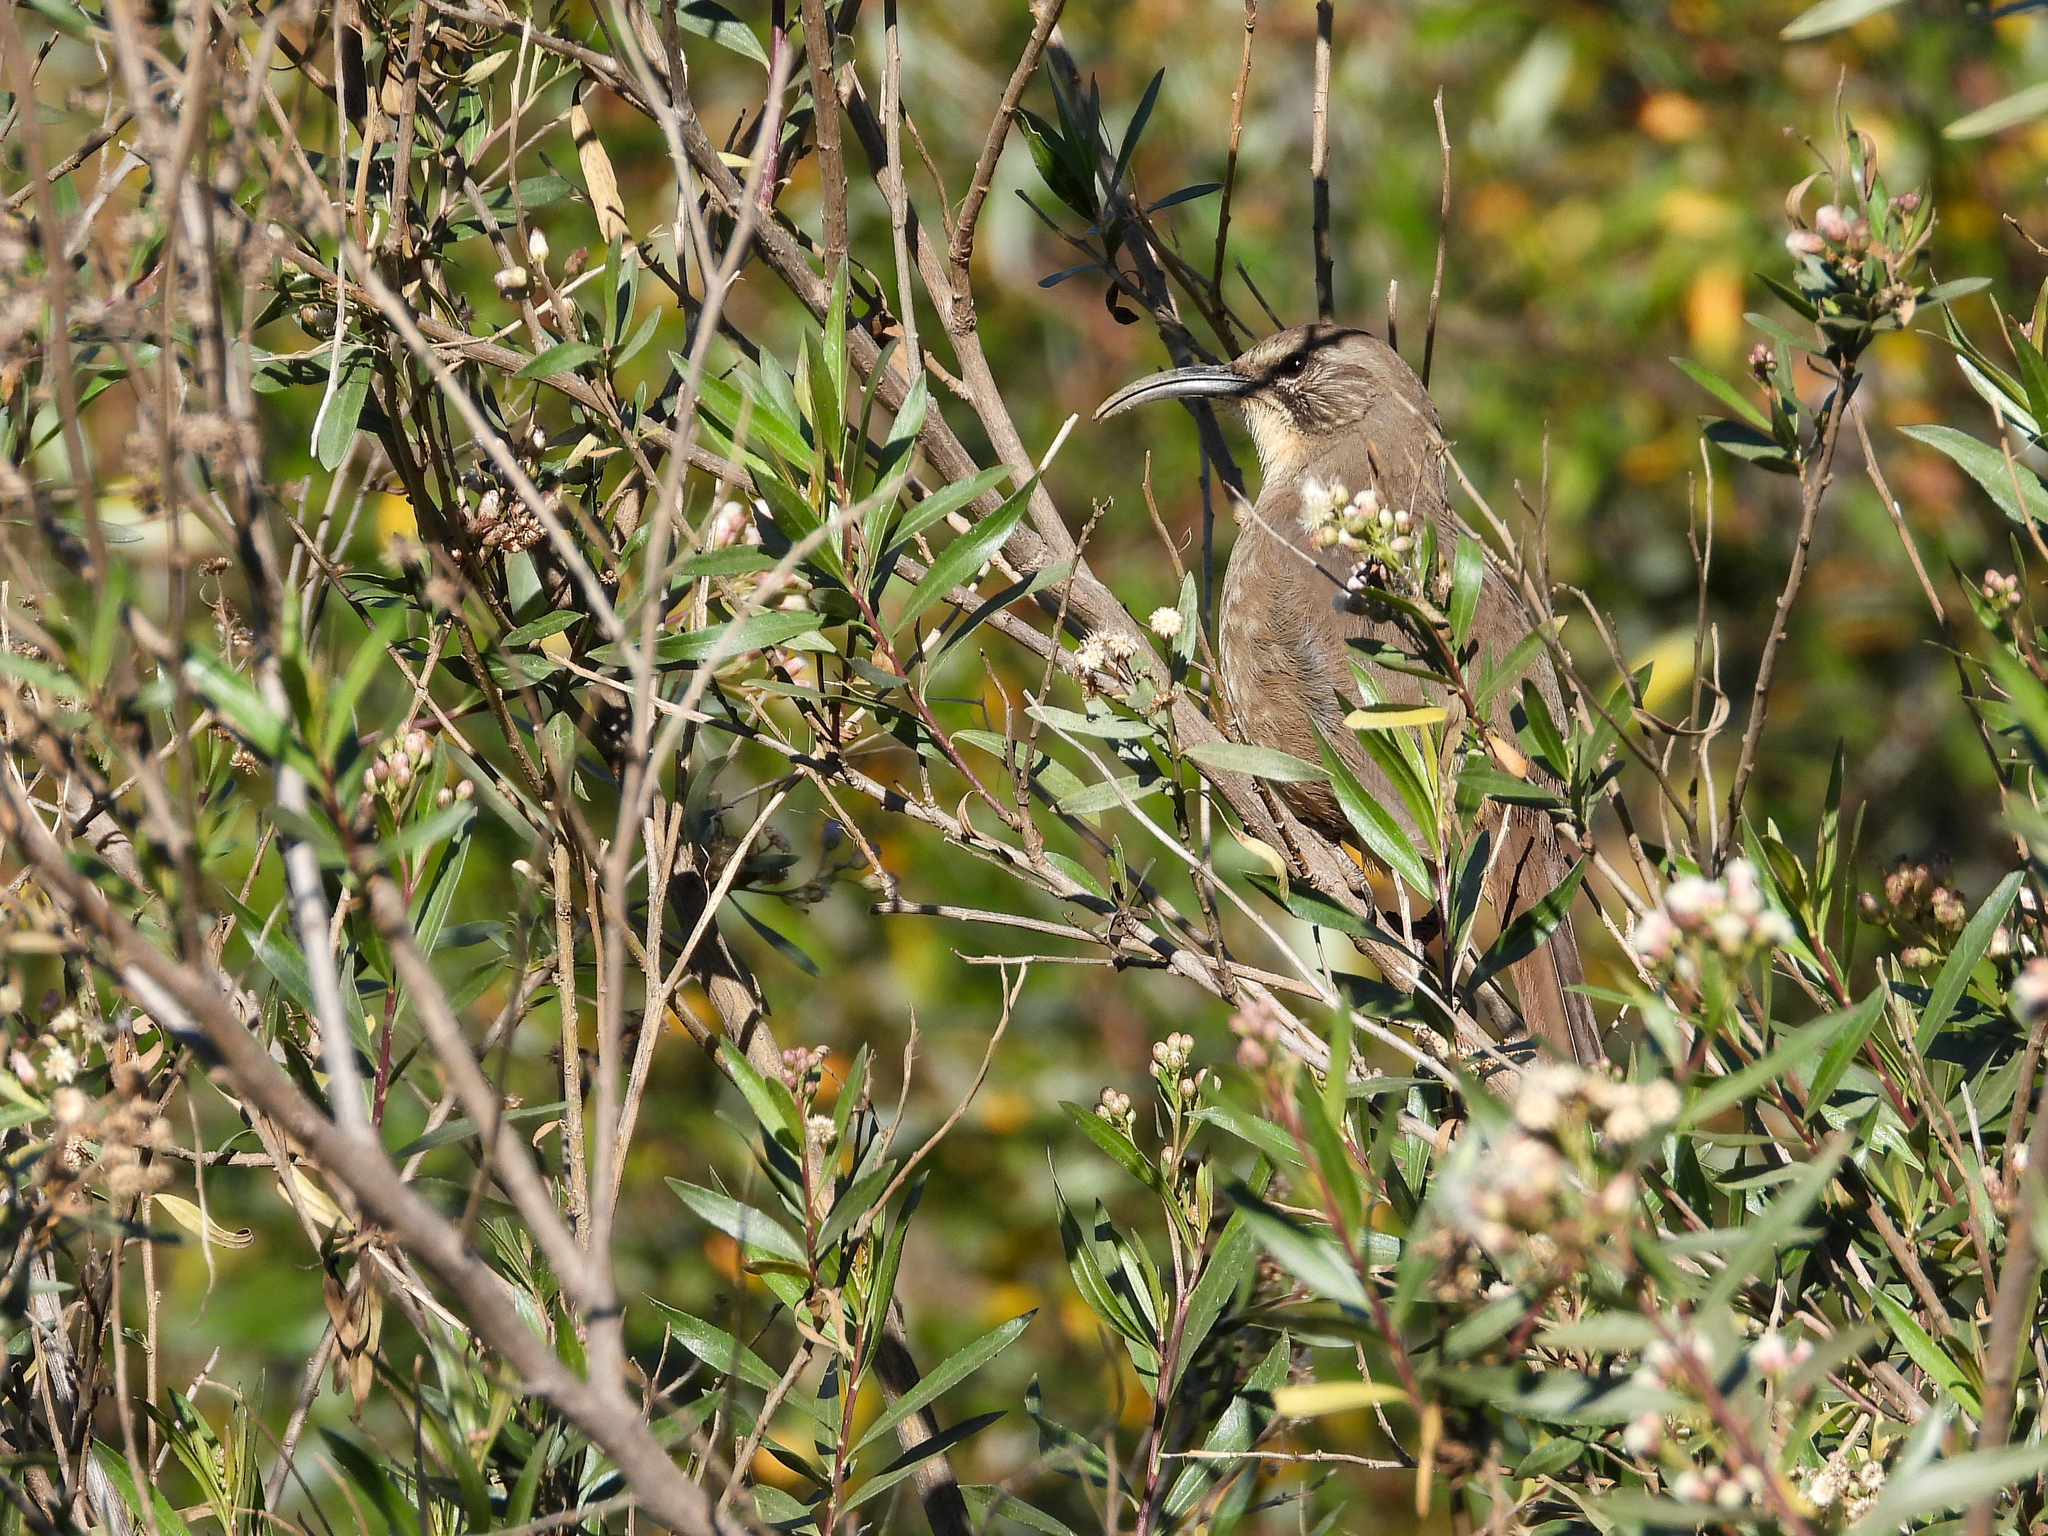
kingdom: Animalia
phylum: Chordata
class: Aves
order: Passeriformes
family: Mimidae
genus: Toxostoma
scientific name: Toxostoma redivivum
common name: California thrasher
